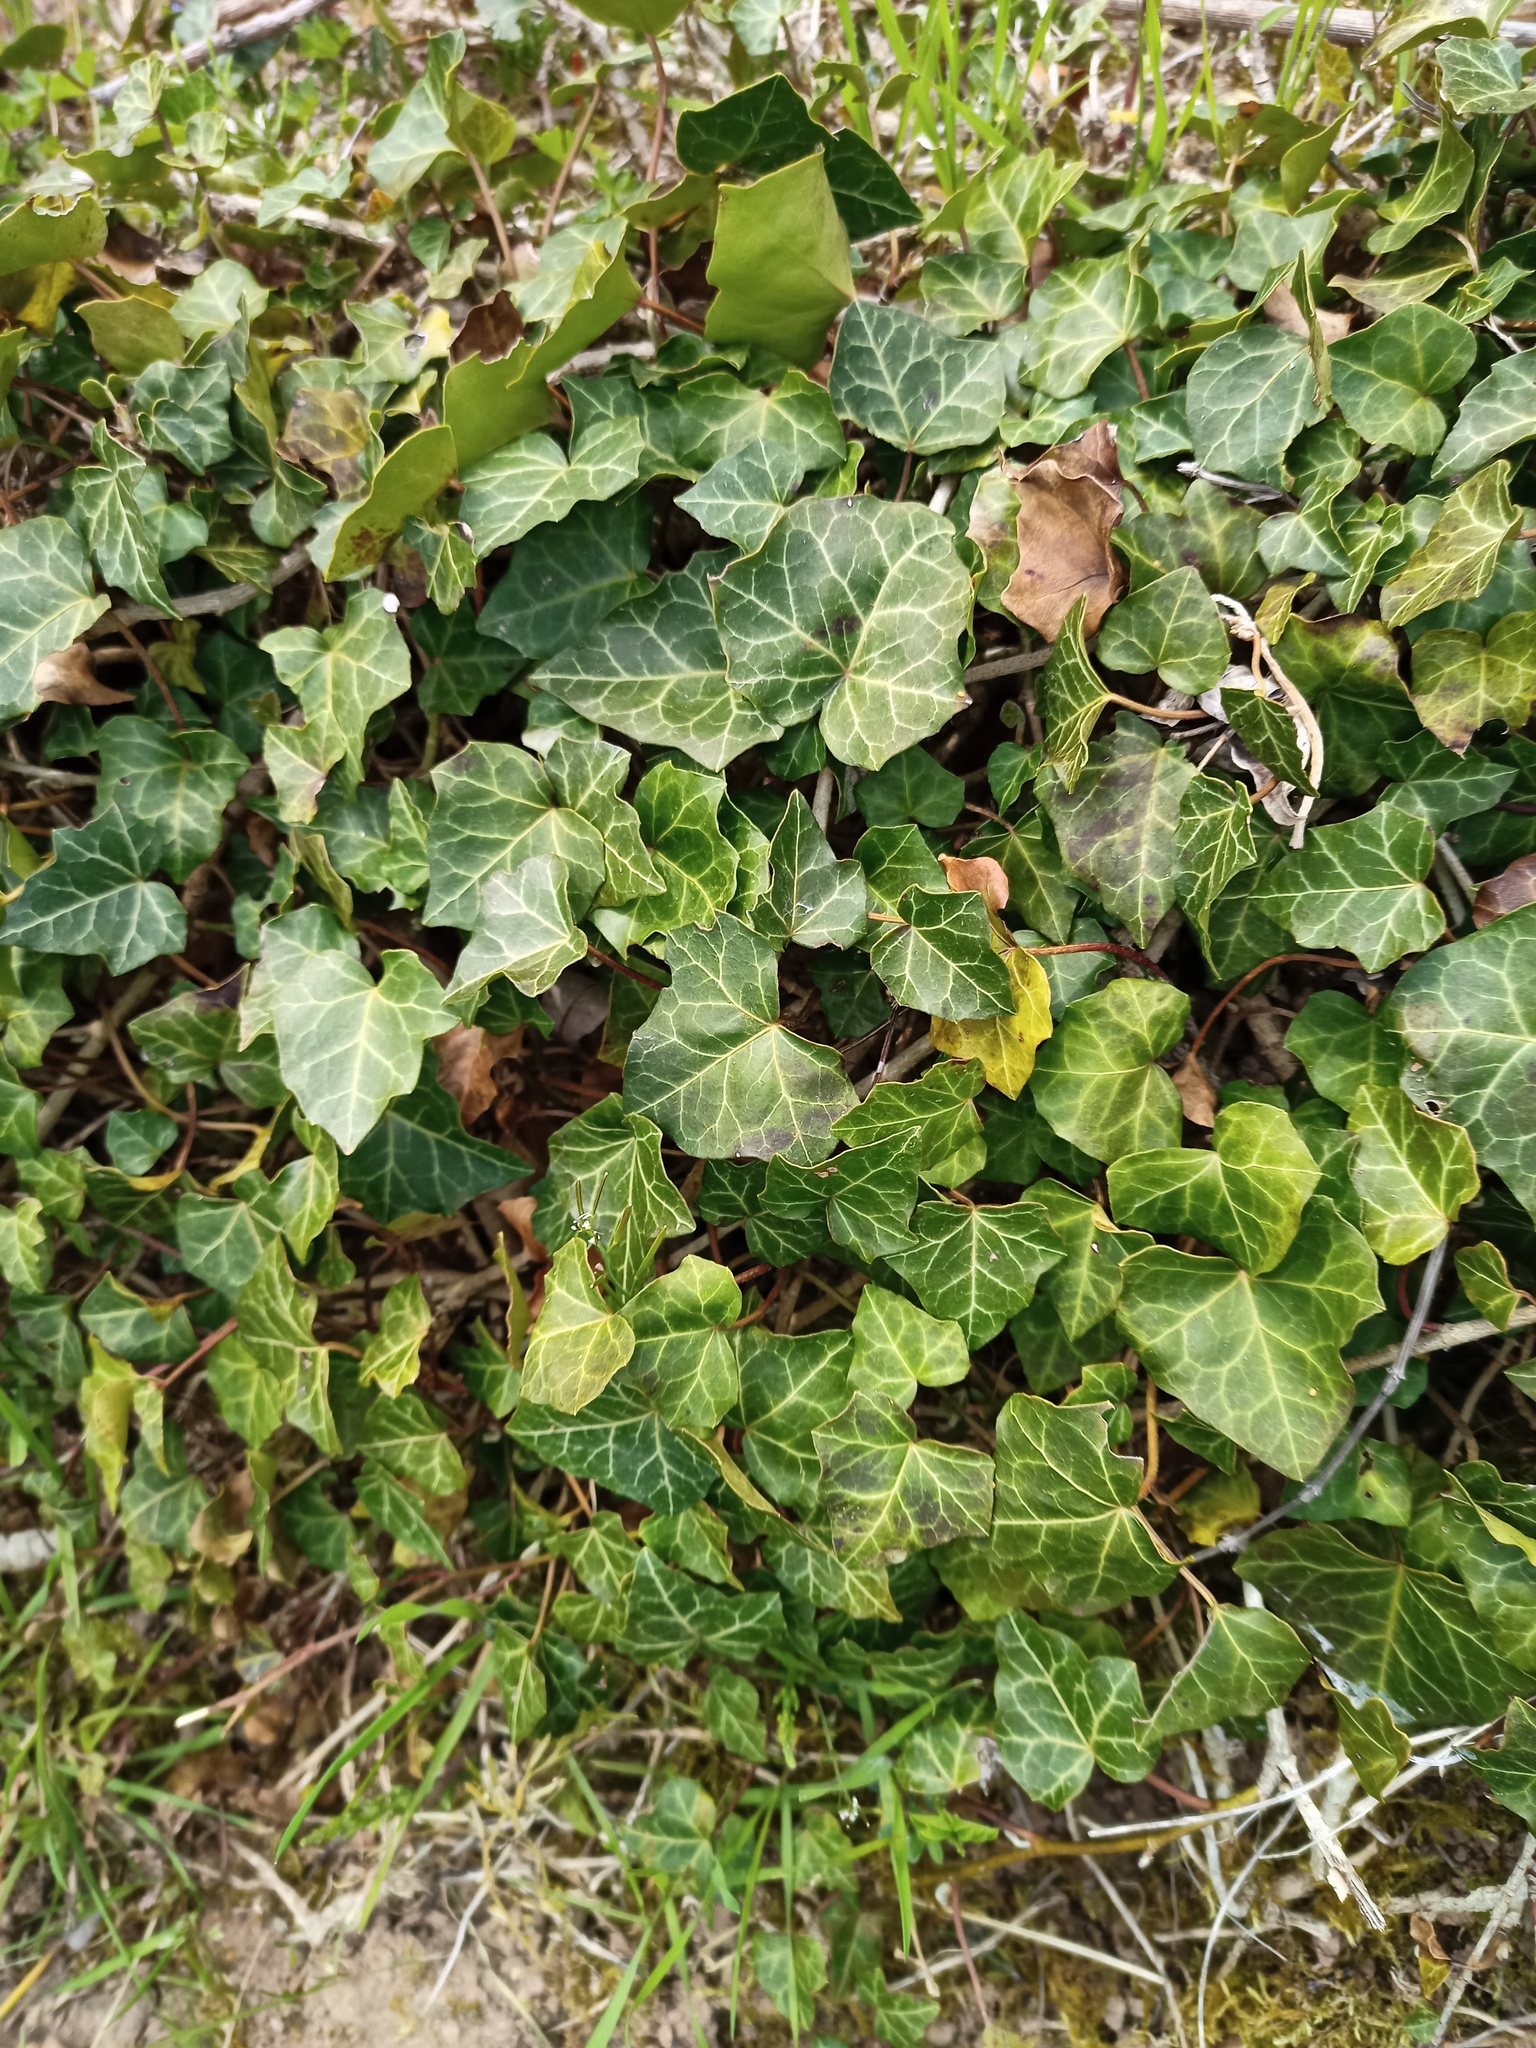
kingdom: Plantae
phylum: Tracheophyta
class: Magnoliopsida
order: Apiales
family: Araliaceae
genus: Hedera
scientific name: Hedera helix
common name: Ivy
